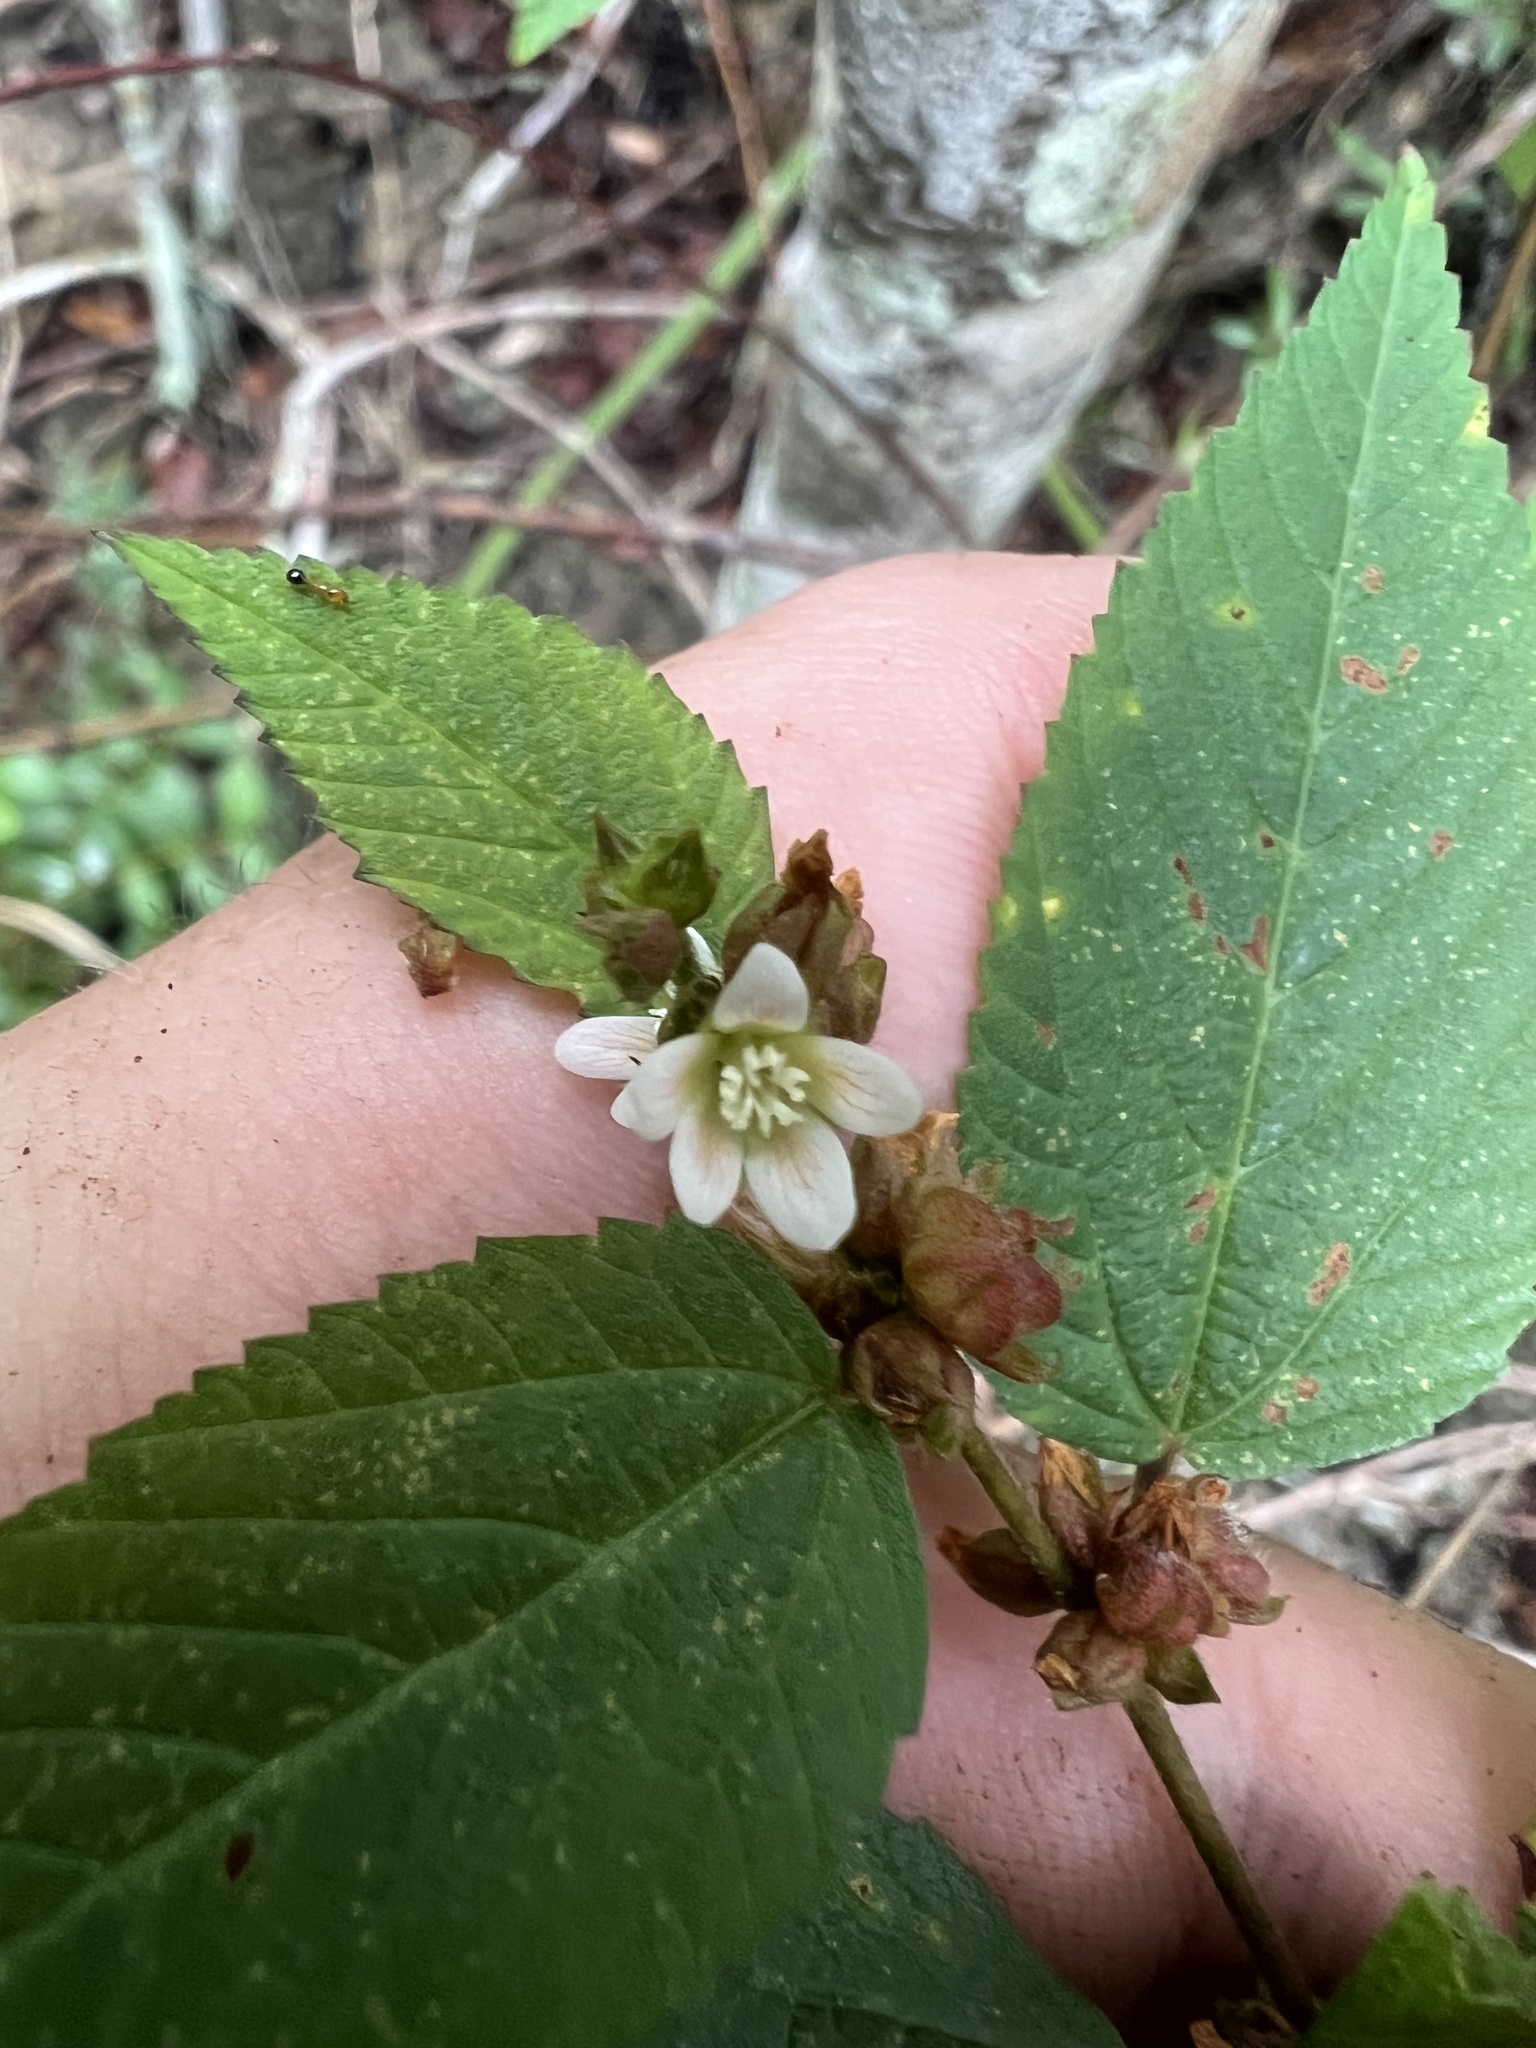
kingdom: Plantae
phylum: Tracheophyta
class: Magnoliopsida
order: Malvales
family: Malvaceae
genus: Melochia
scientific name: Melochia nodiflora
